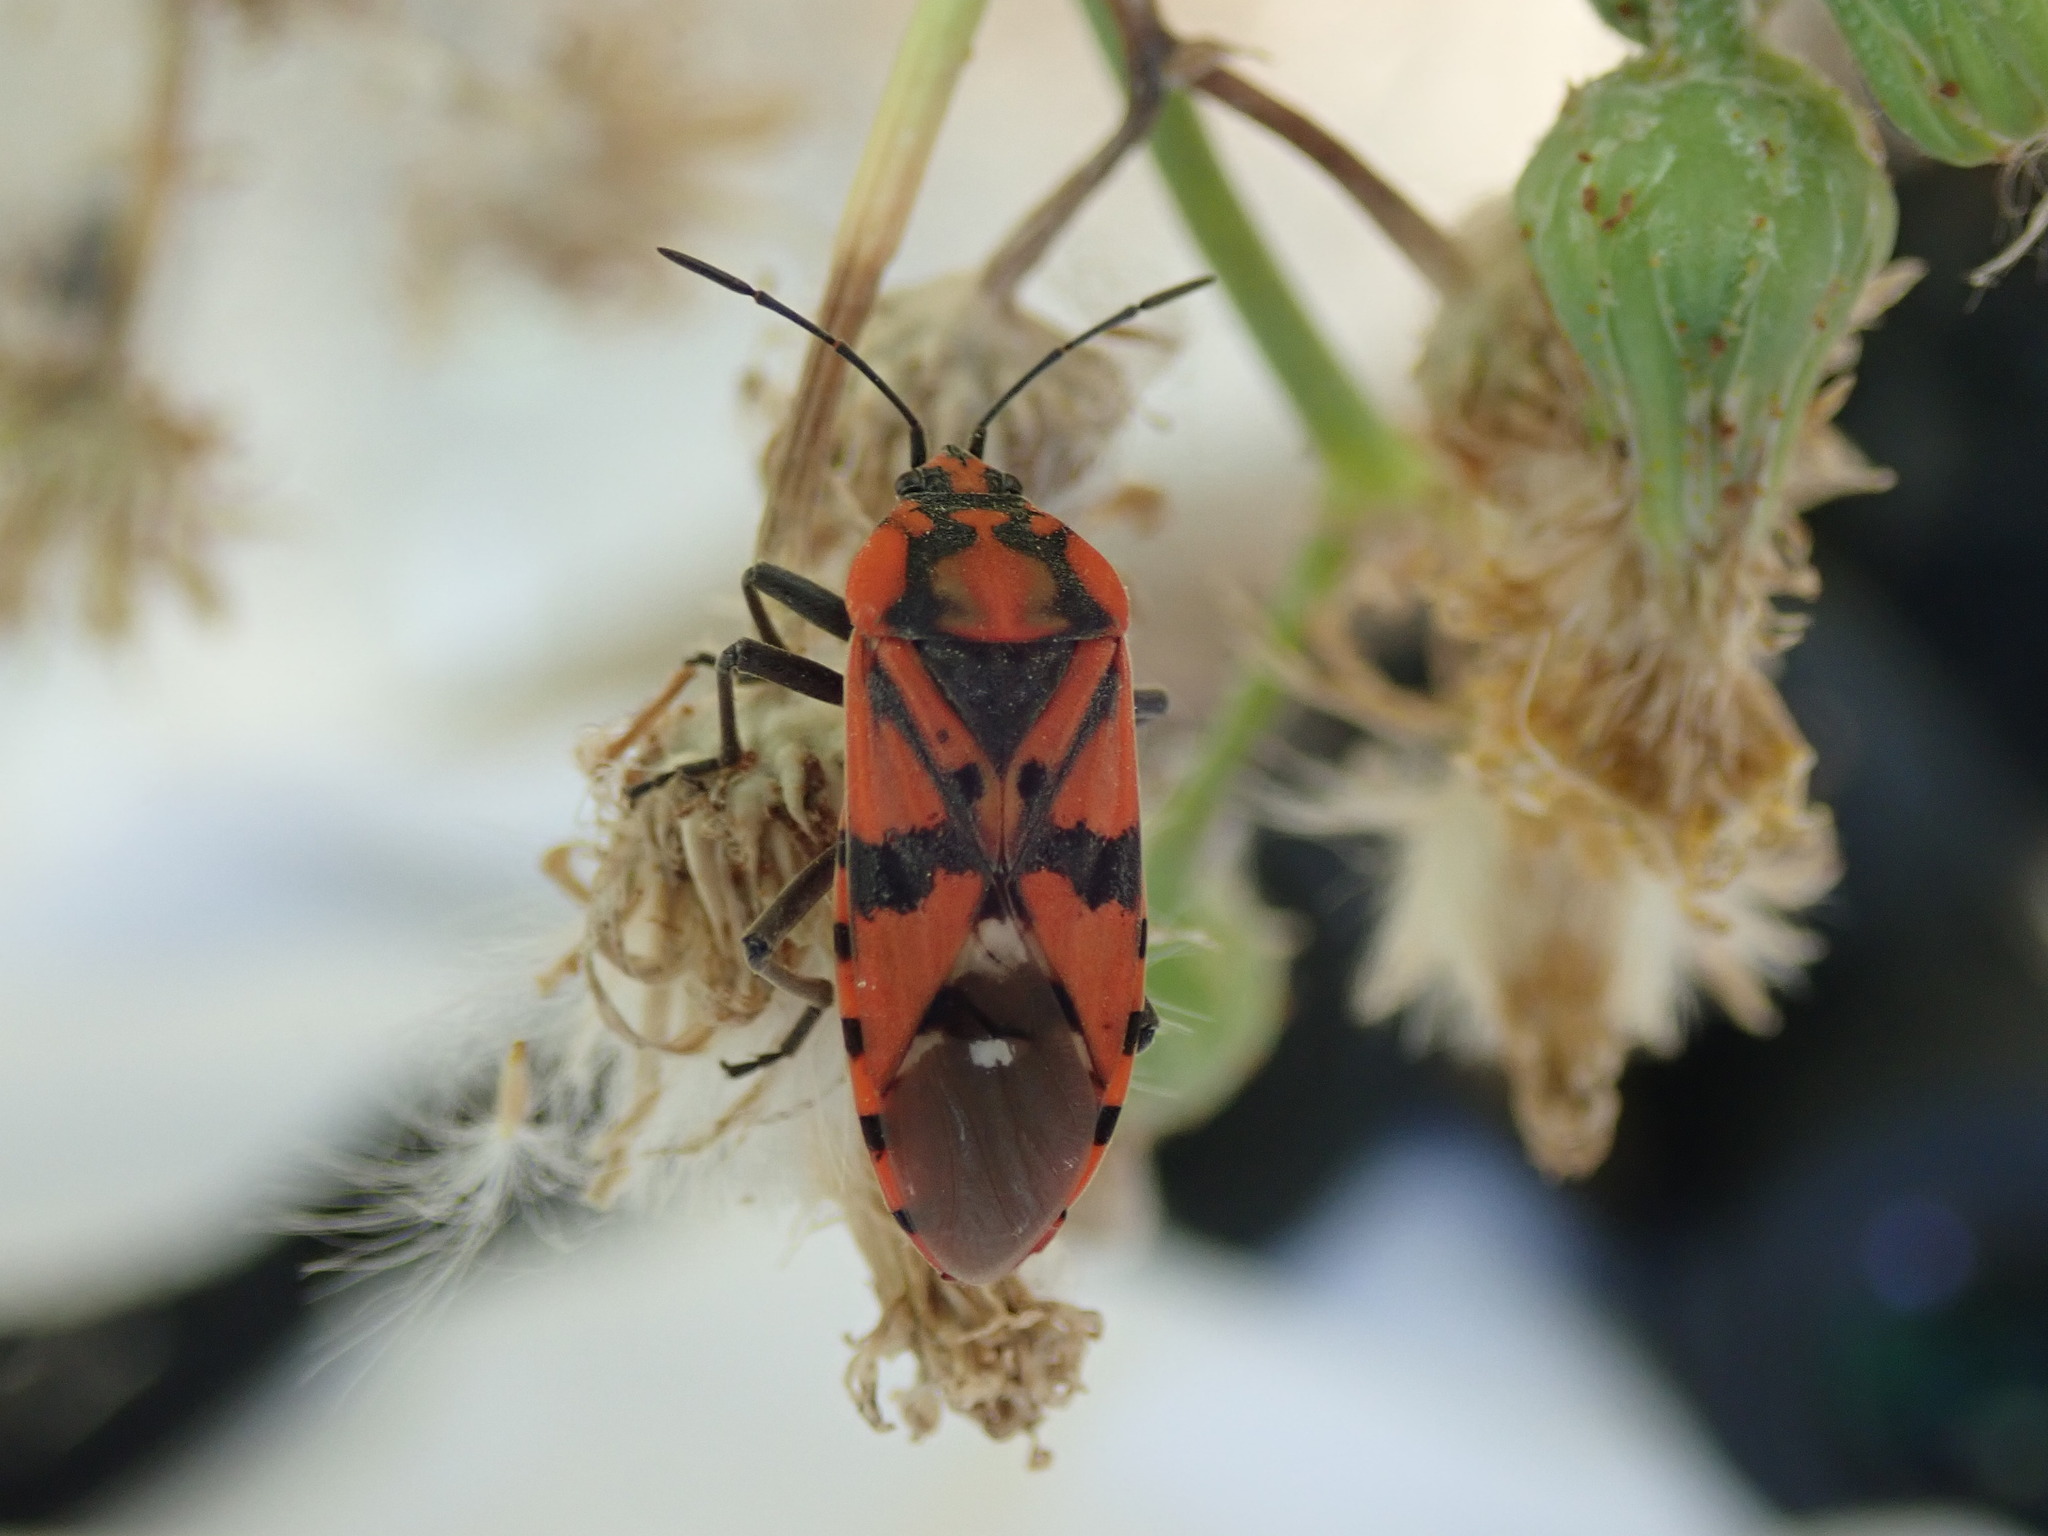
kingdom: Animalia
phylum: Arthropoda
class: Insecta
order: Hemiptera
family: Lygaeidae
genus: Spilostethus
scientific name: Spilostethus pandurus
